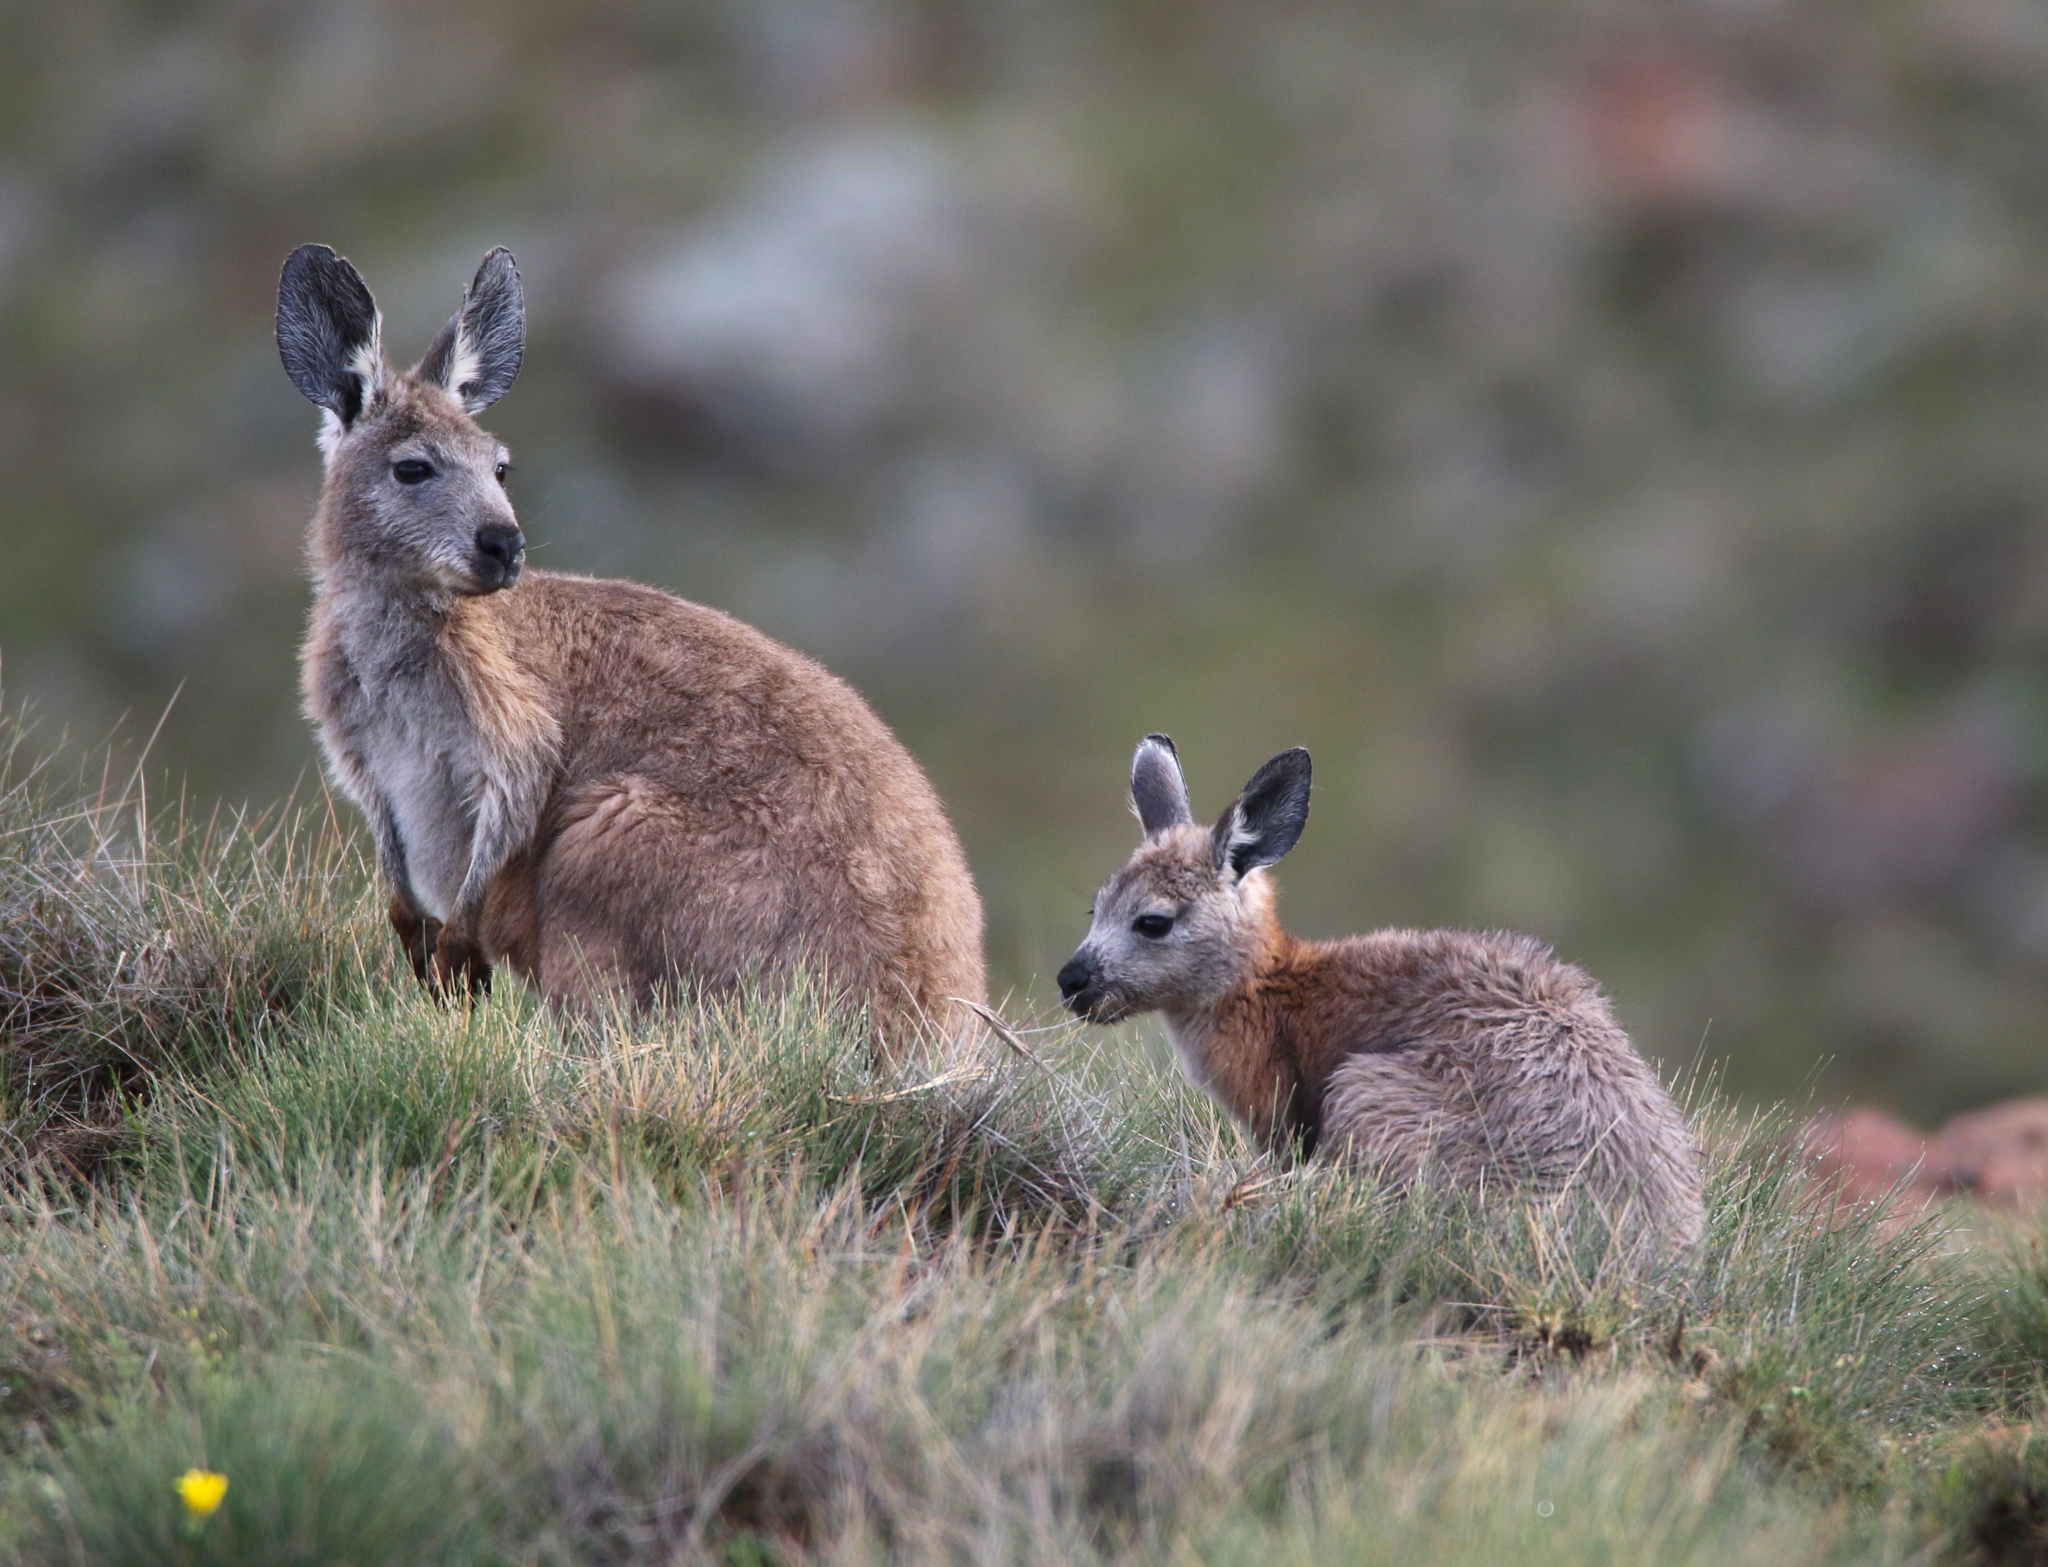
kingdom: Animalia
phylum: Chordata
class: Mammalia
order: Diprotodontia
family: Macropodidae
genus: Macropus
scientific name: Macropus robustus
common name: Eastern wallaroo
